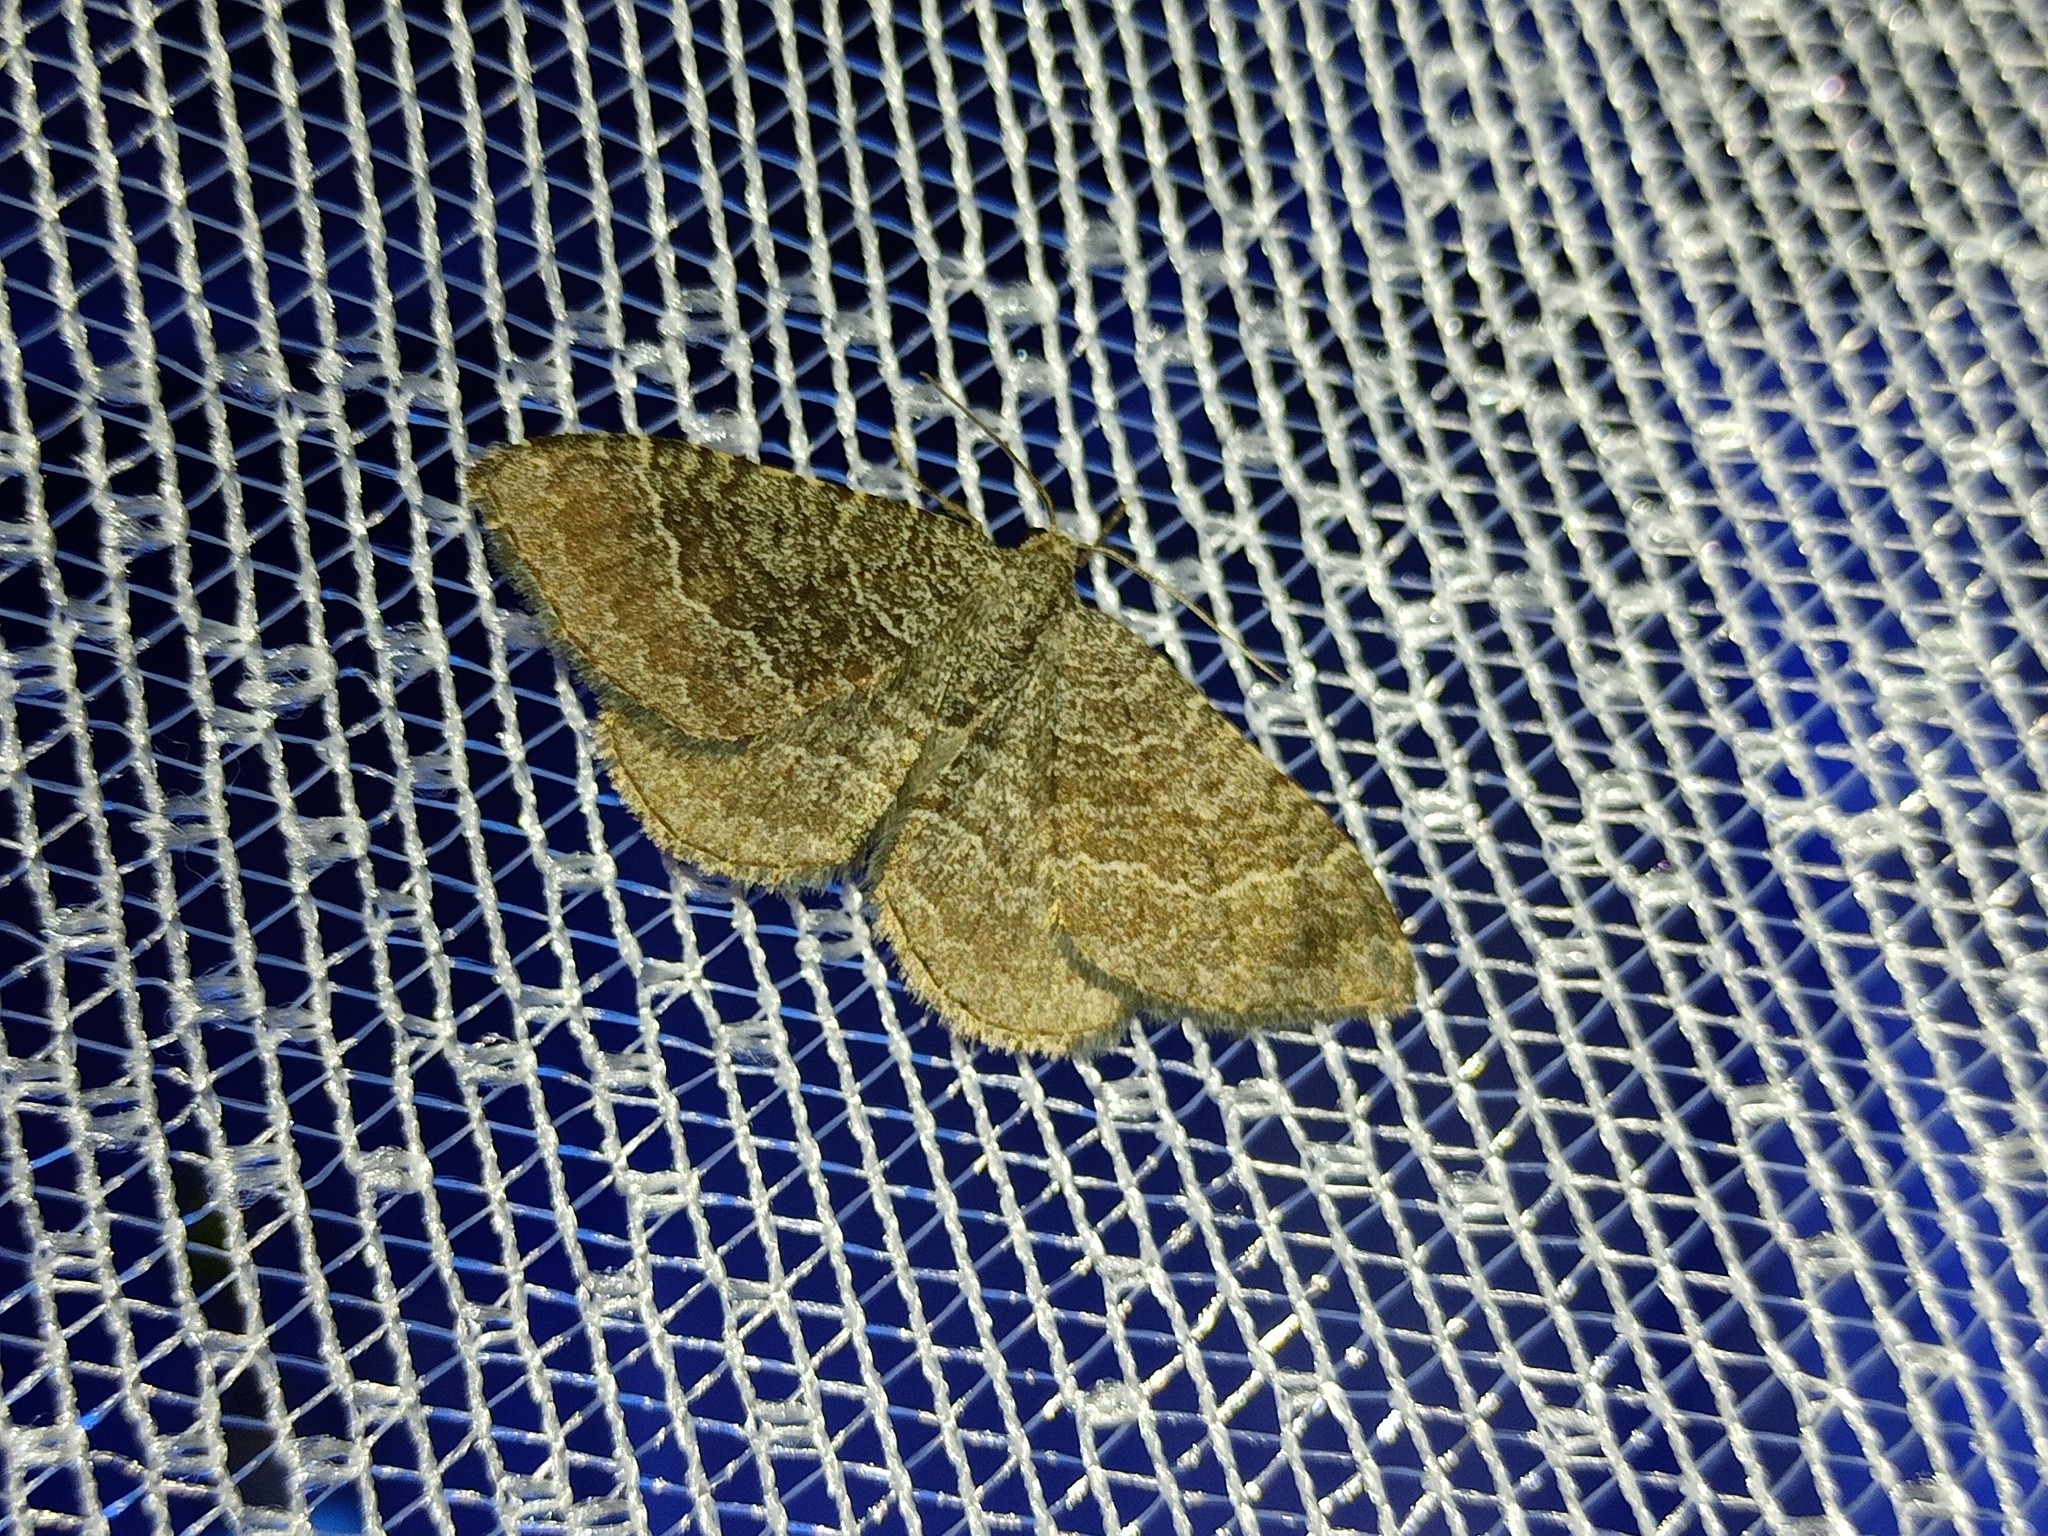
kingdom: Animalia
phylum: Arthropoda
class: Insecta
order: Lepidoptera
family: Geometridae
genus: Cataclysme
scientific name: Cataclysme riguata
